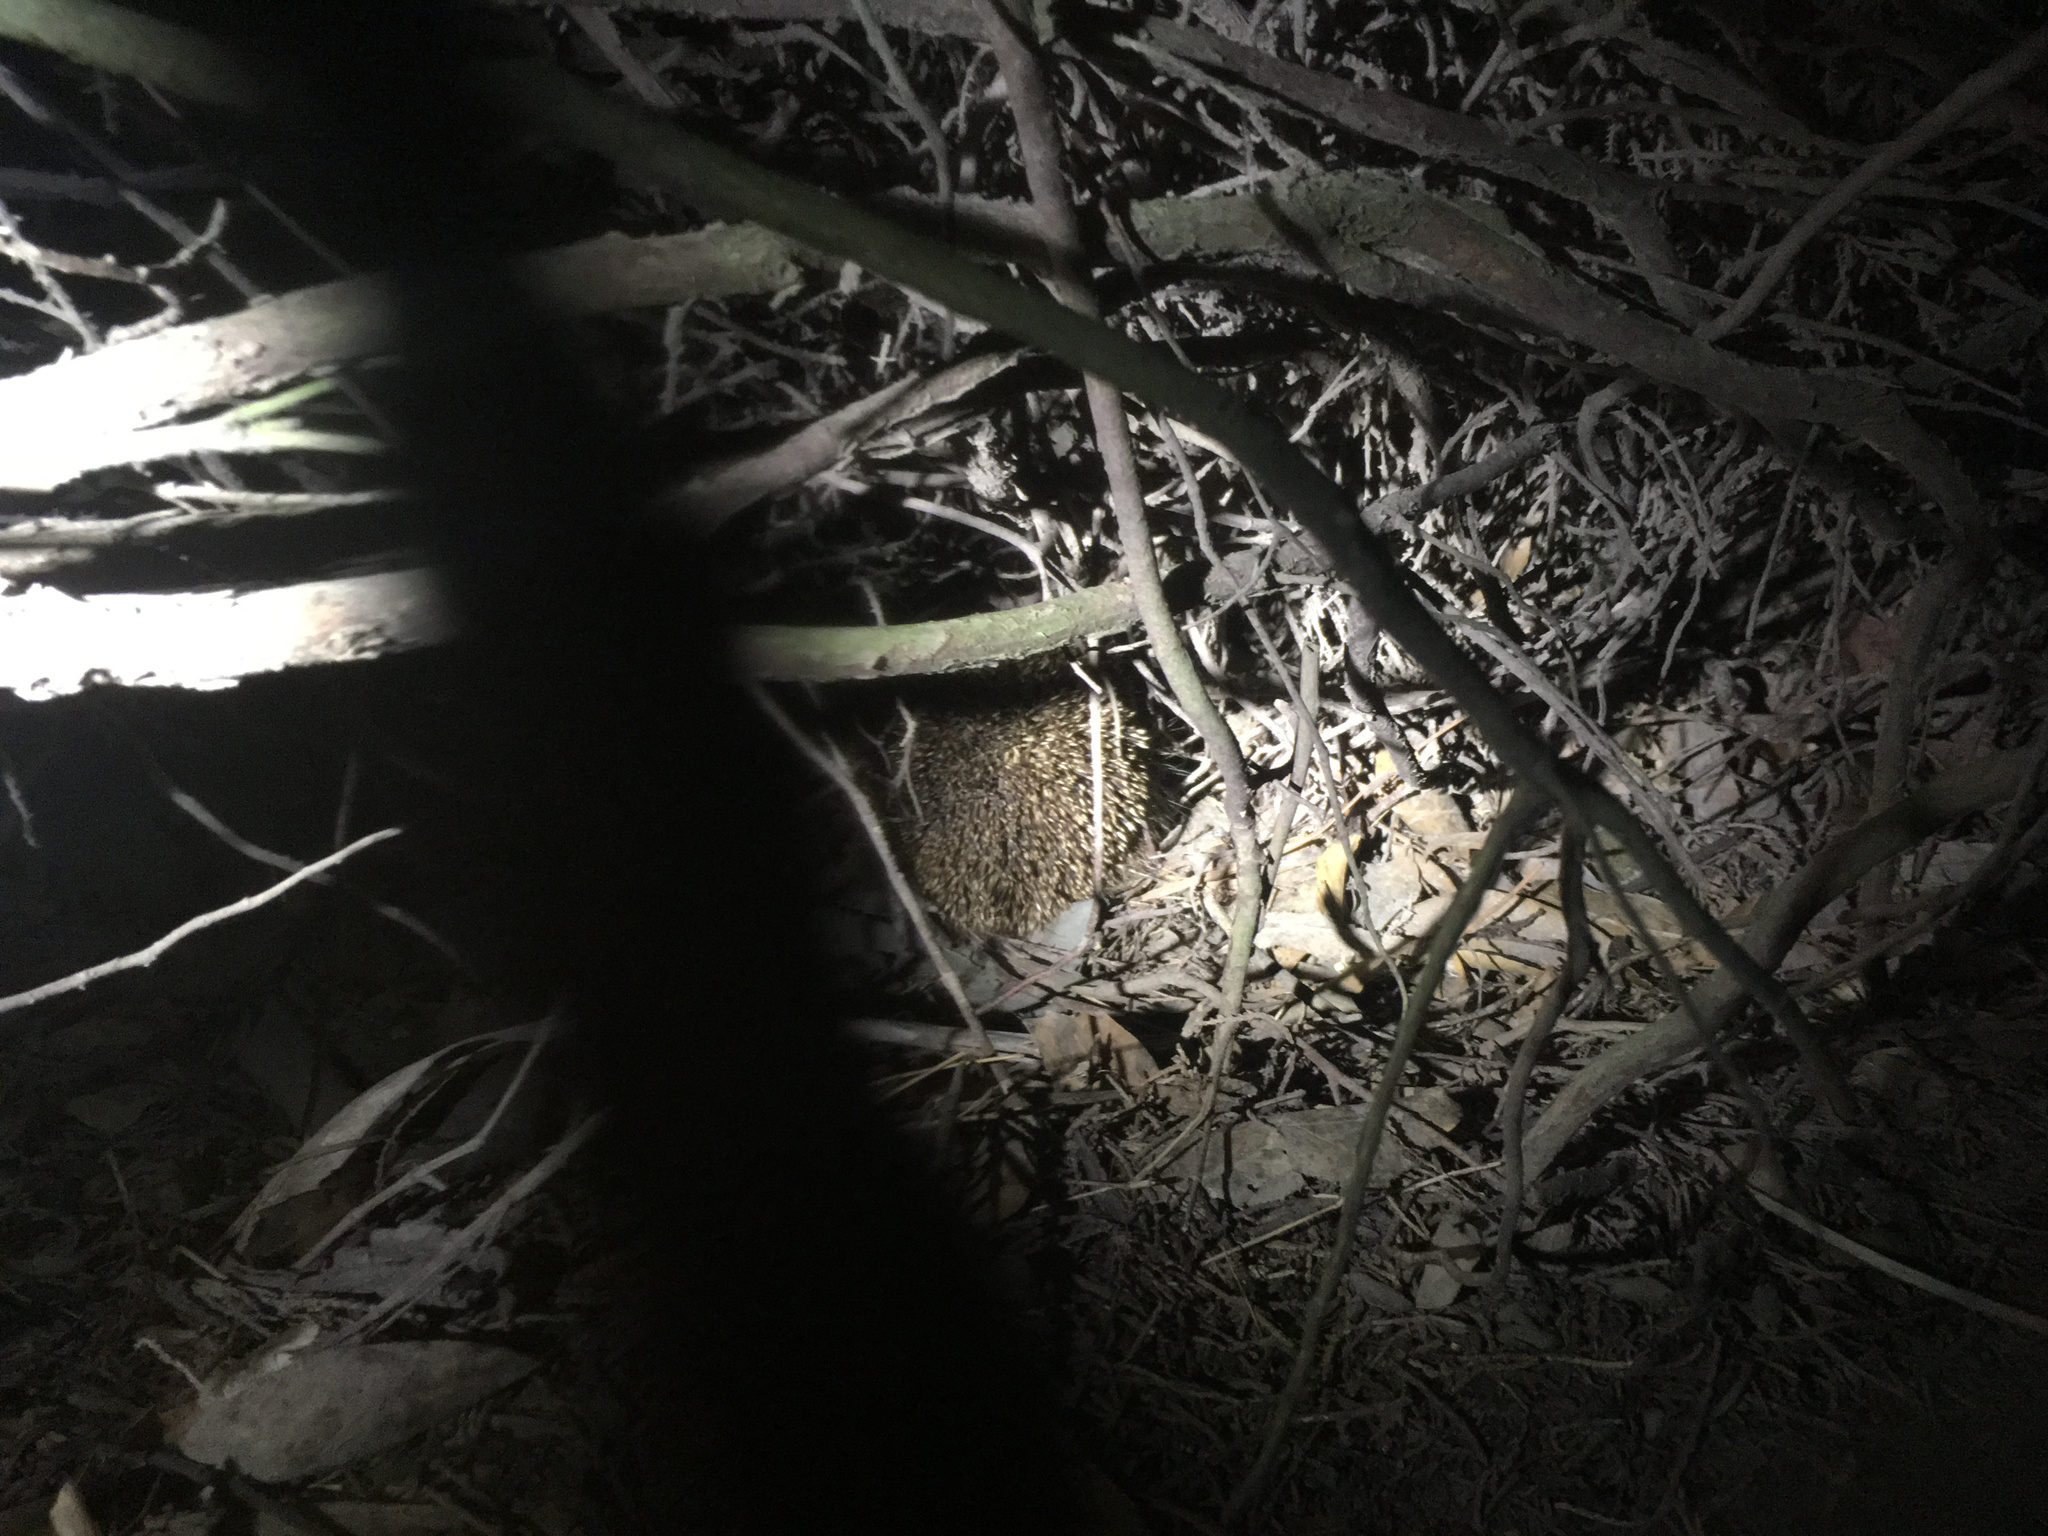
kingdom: Animalia
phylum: Chordata
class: Mammalia
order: Erinaceomorpha
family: Erinaceidae
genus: Erinaceus
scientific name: Erinaceus europaeus
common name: West european hedgehog
